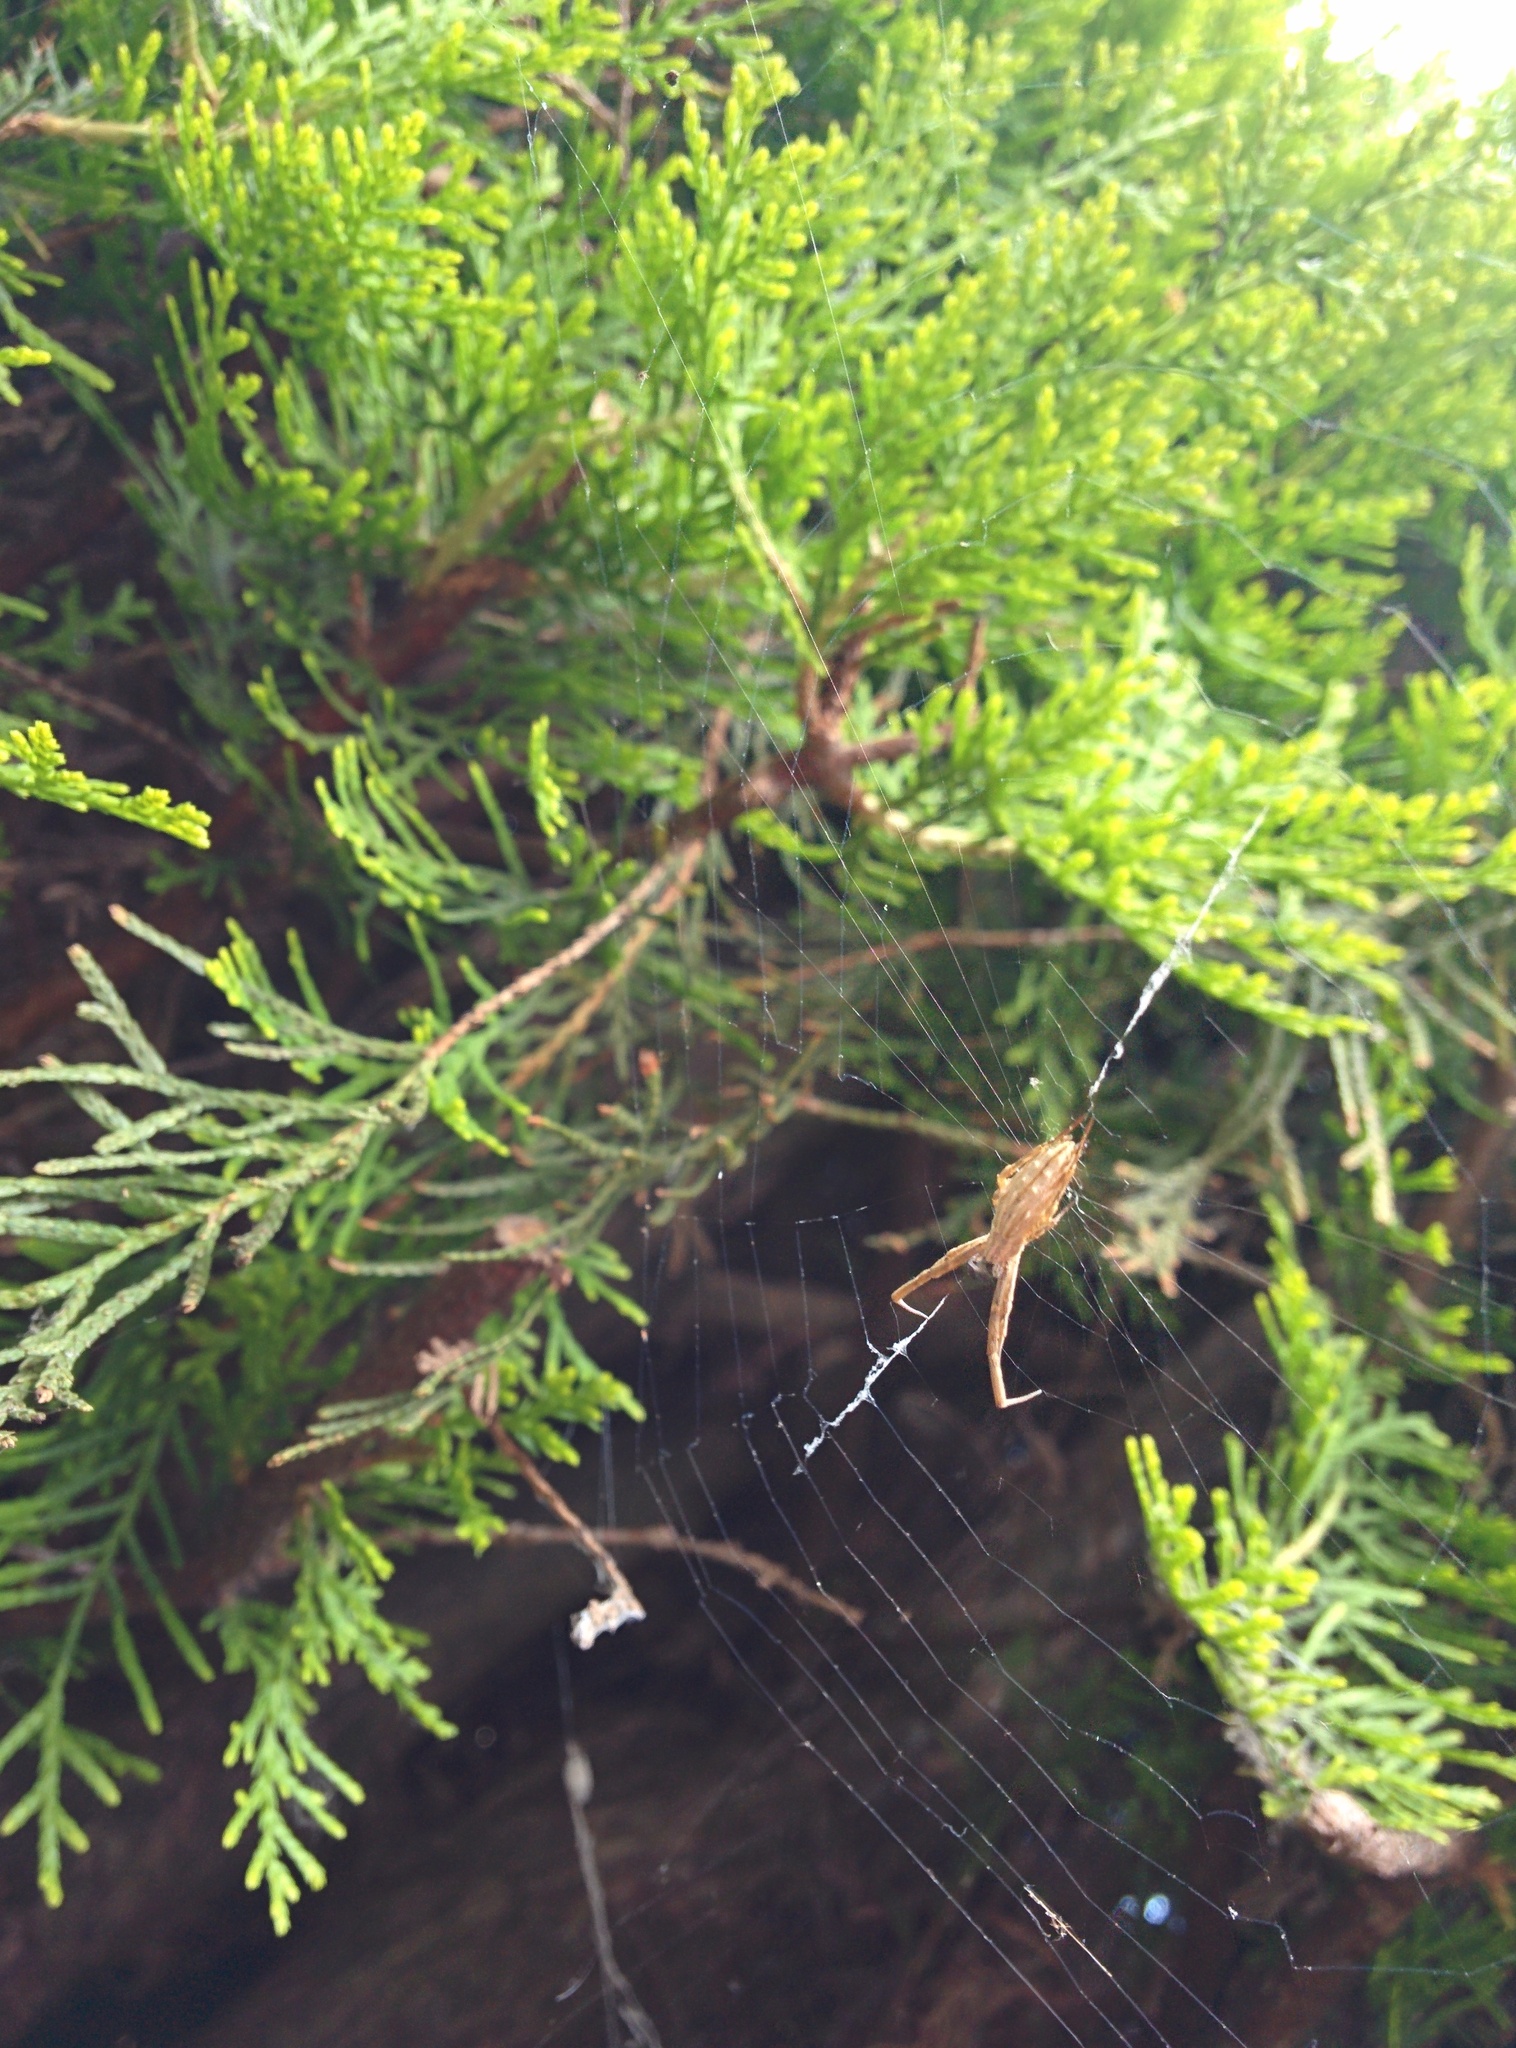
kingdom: Animalia
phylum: Arthropoda
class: Arachnida
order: Araneae
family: Uloboridae
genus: Uloborus
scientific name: Uloborus walckenaerius
